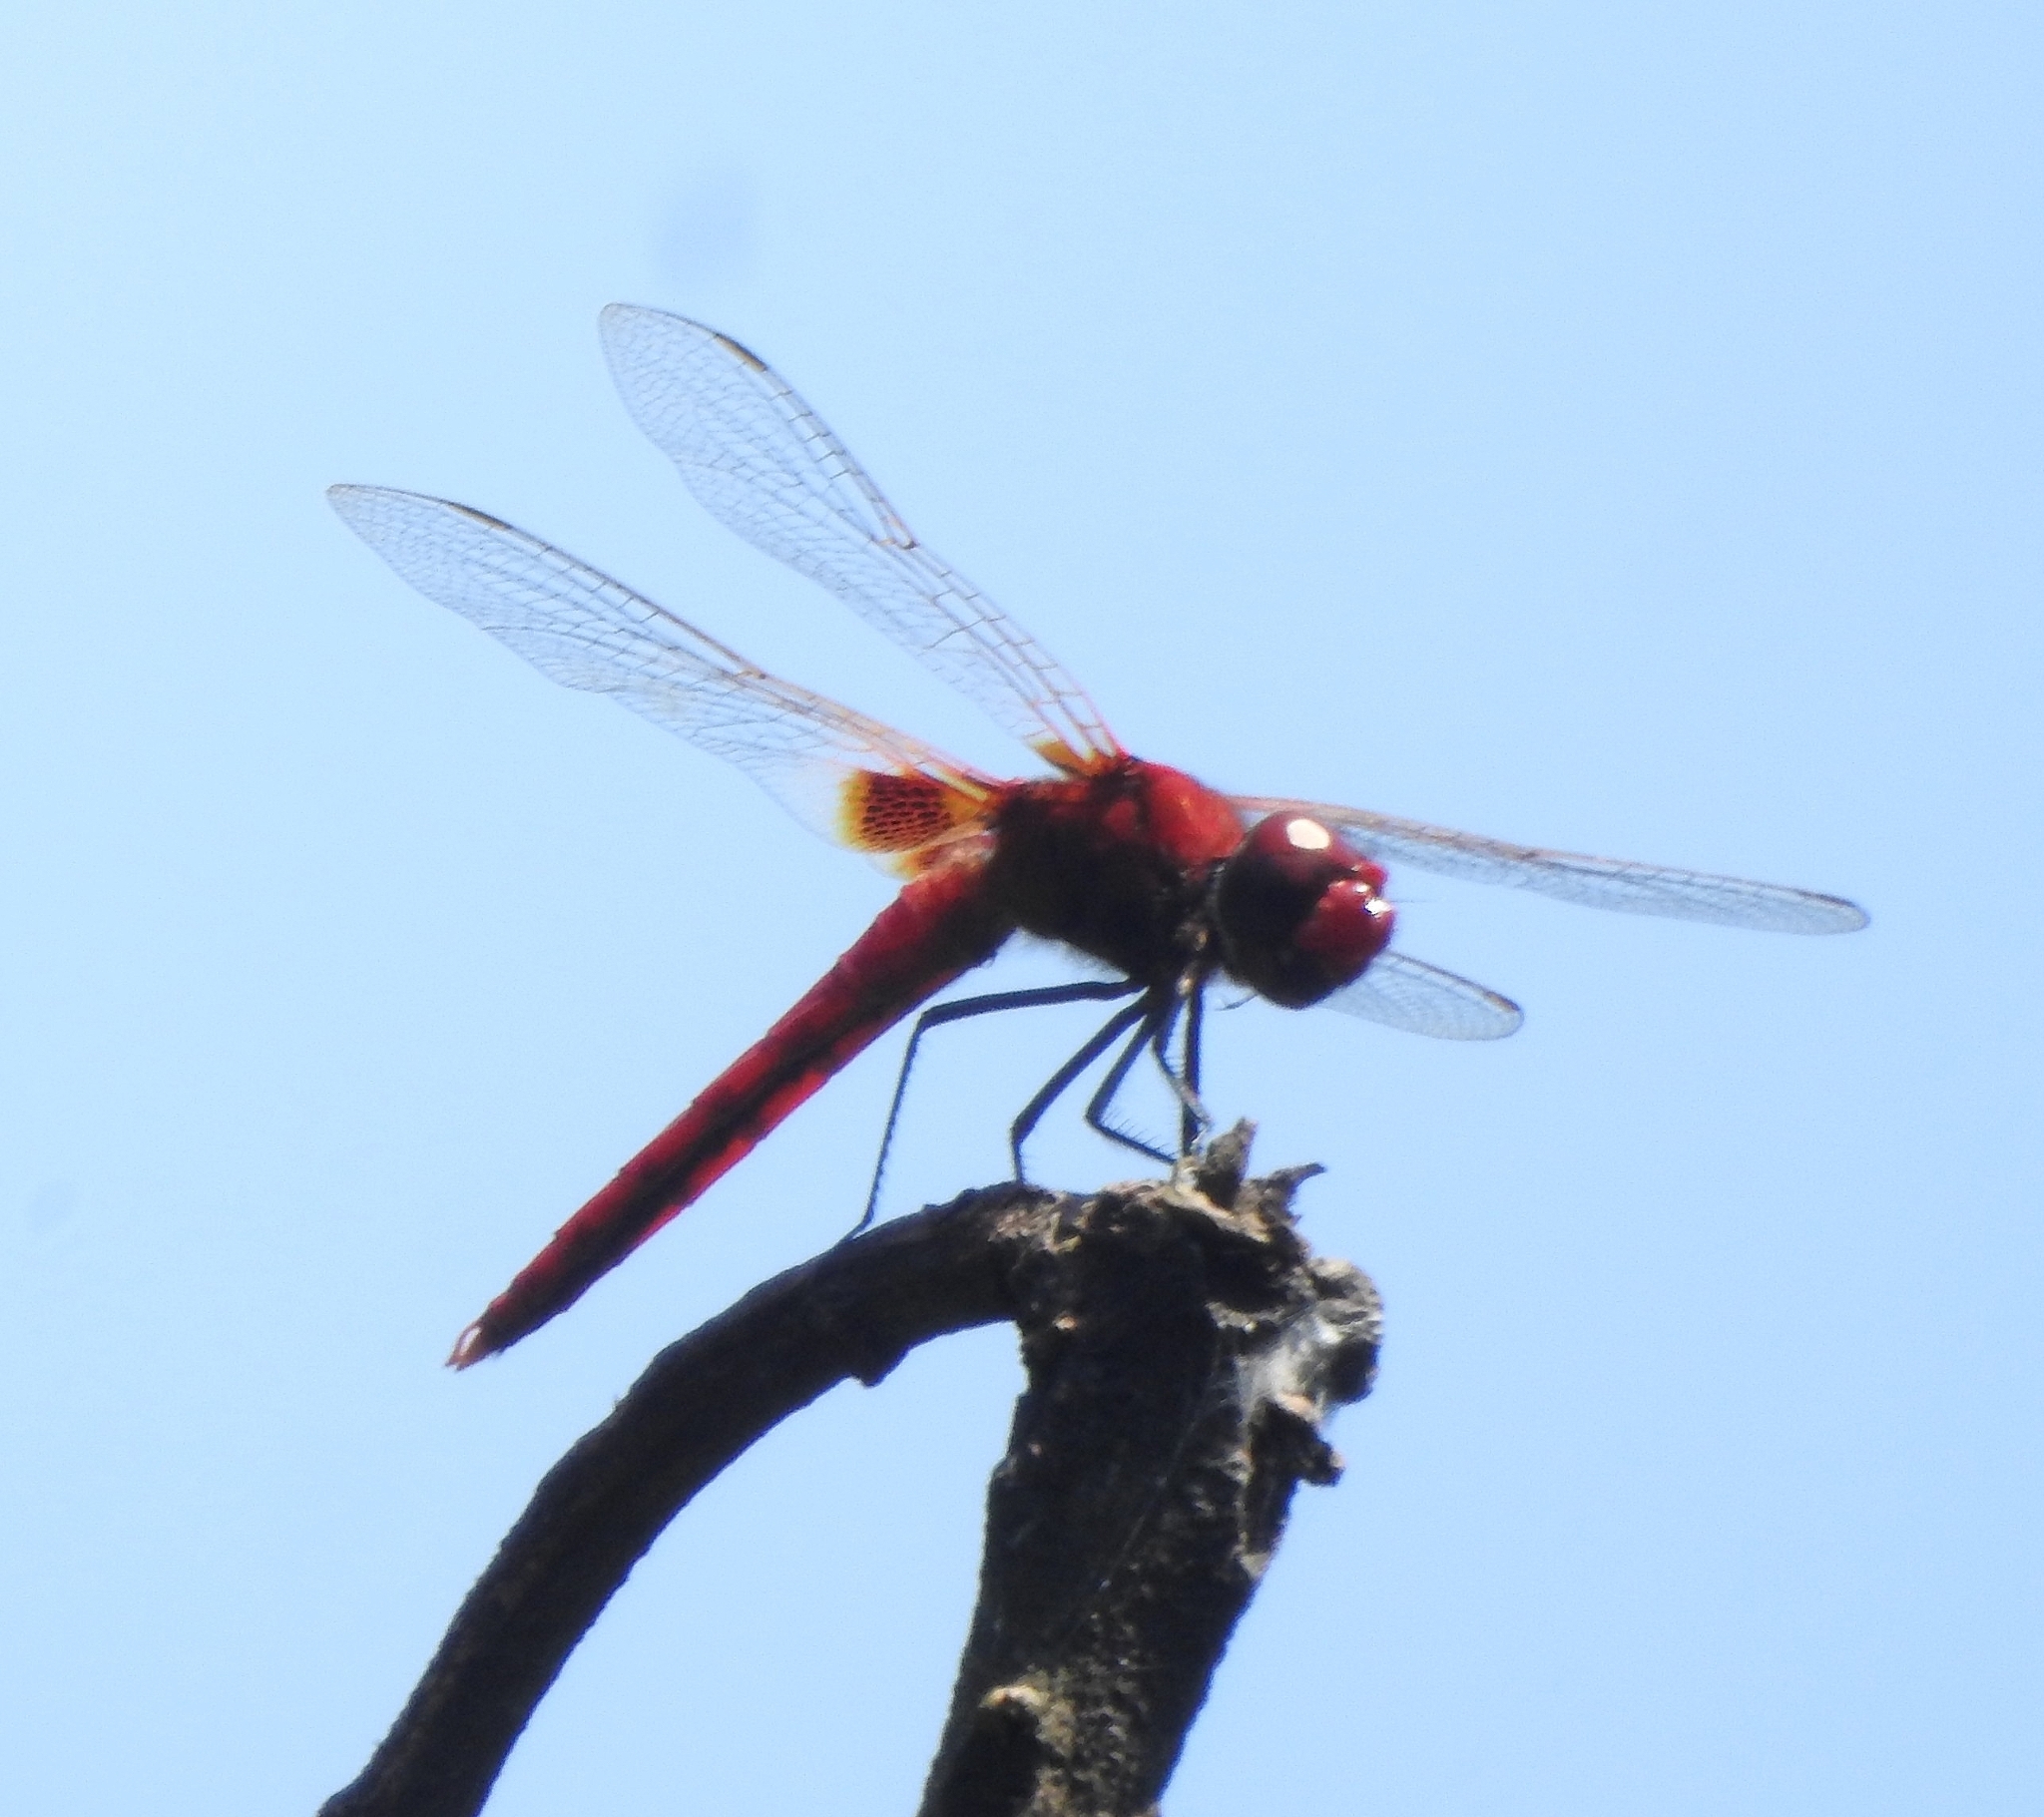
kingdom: Animalia
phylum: Arthropoda
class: Insecta
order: Odonata
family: Libellulidae
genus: Urothemis
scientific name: Urothemis signata
